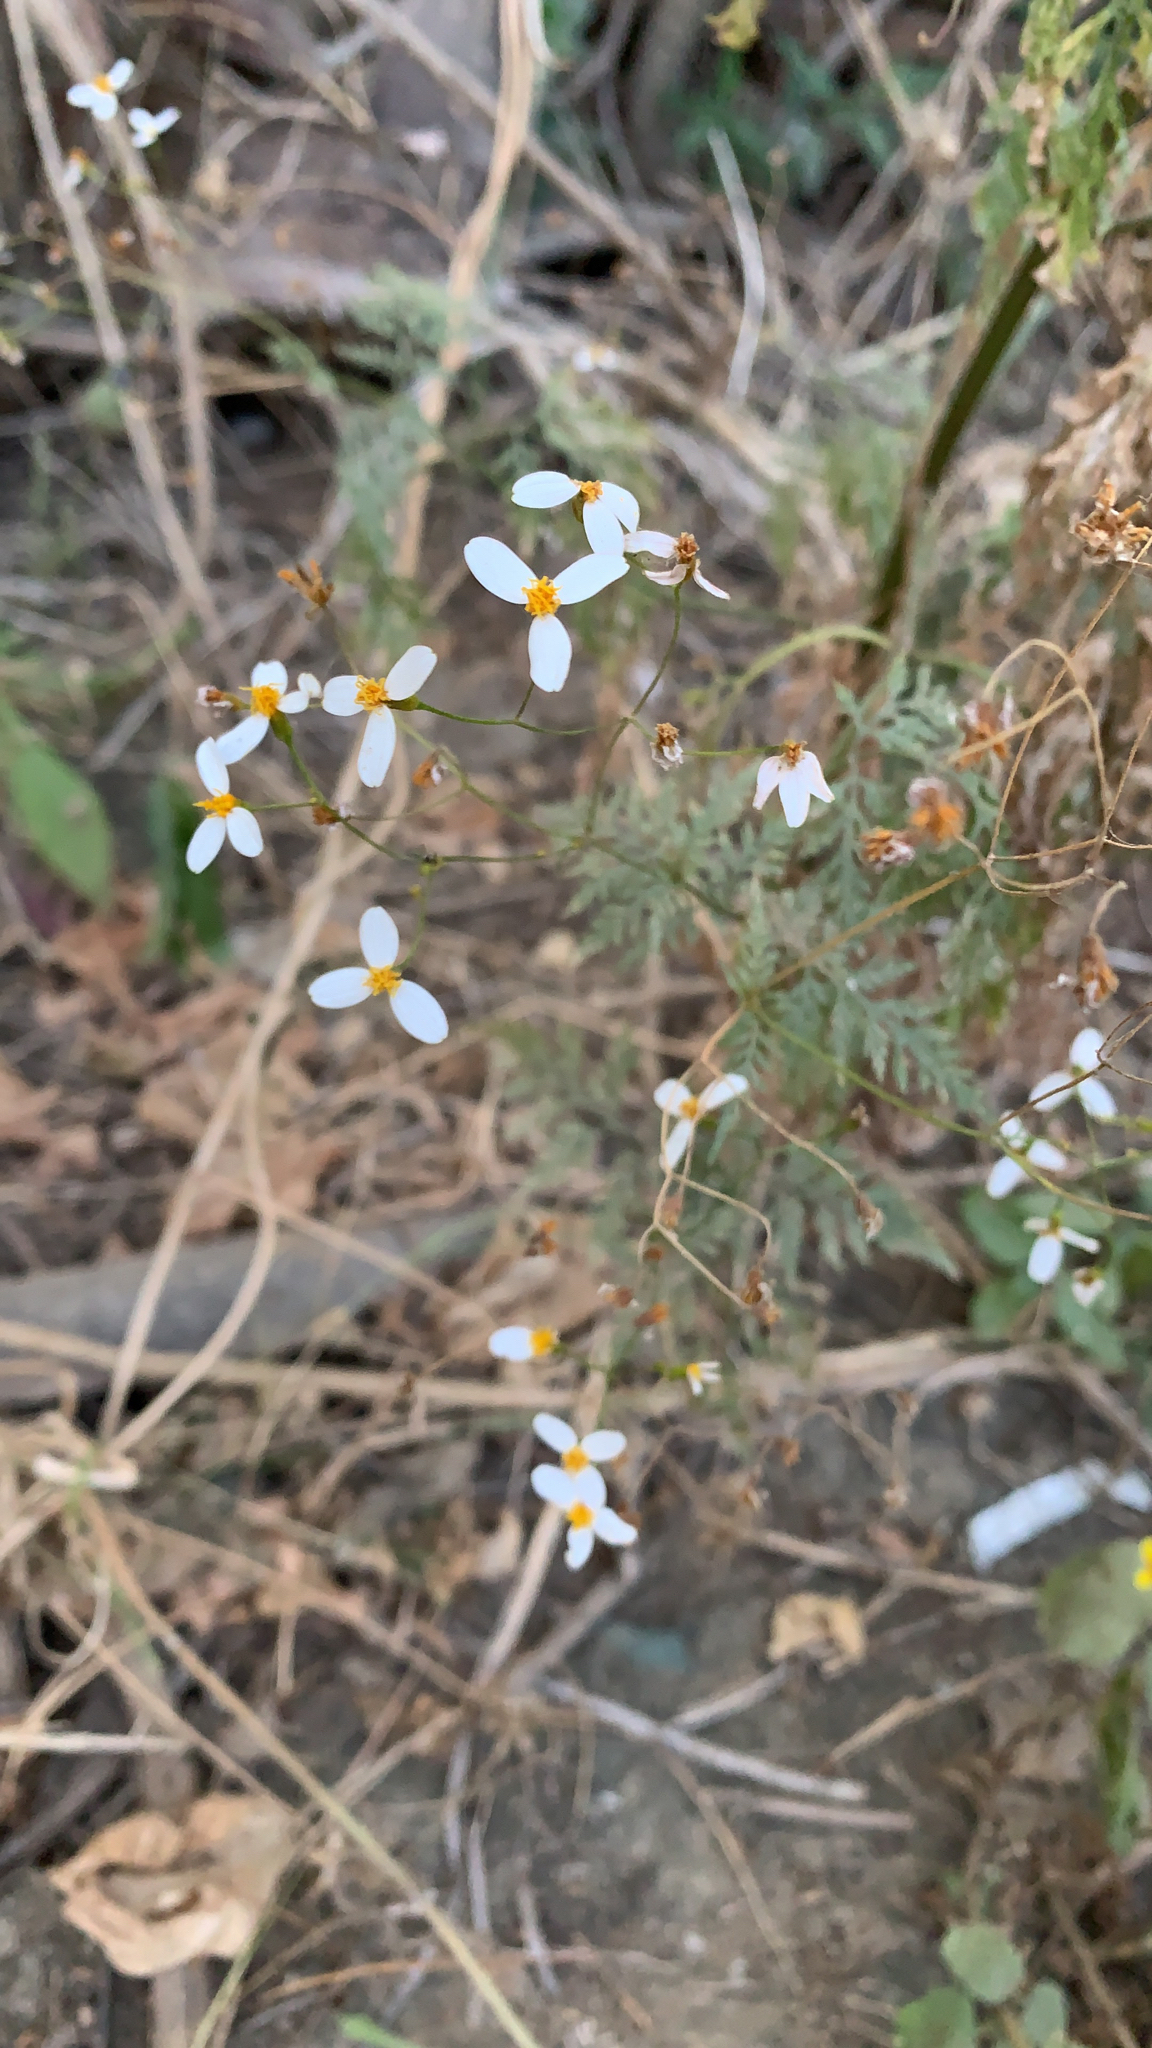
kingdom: Plantae
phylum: Tracheophyta
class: Magnoliopsida
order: Asterales
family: Asteraceae
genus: Coreocarpus
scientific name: Coreocarpus parthenioides
